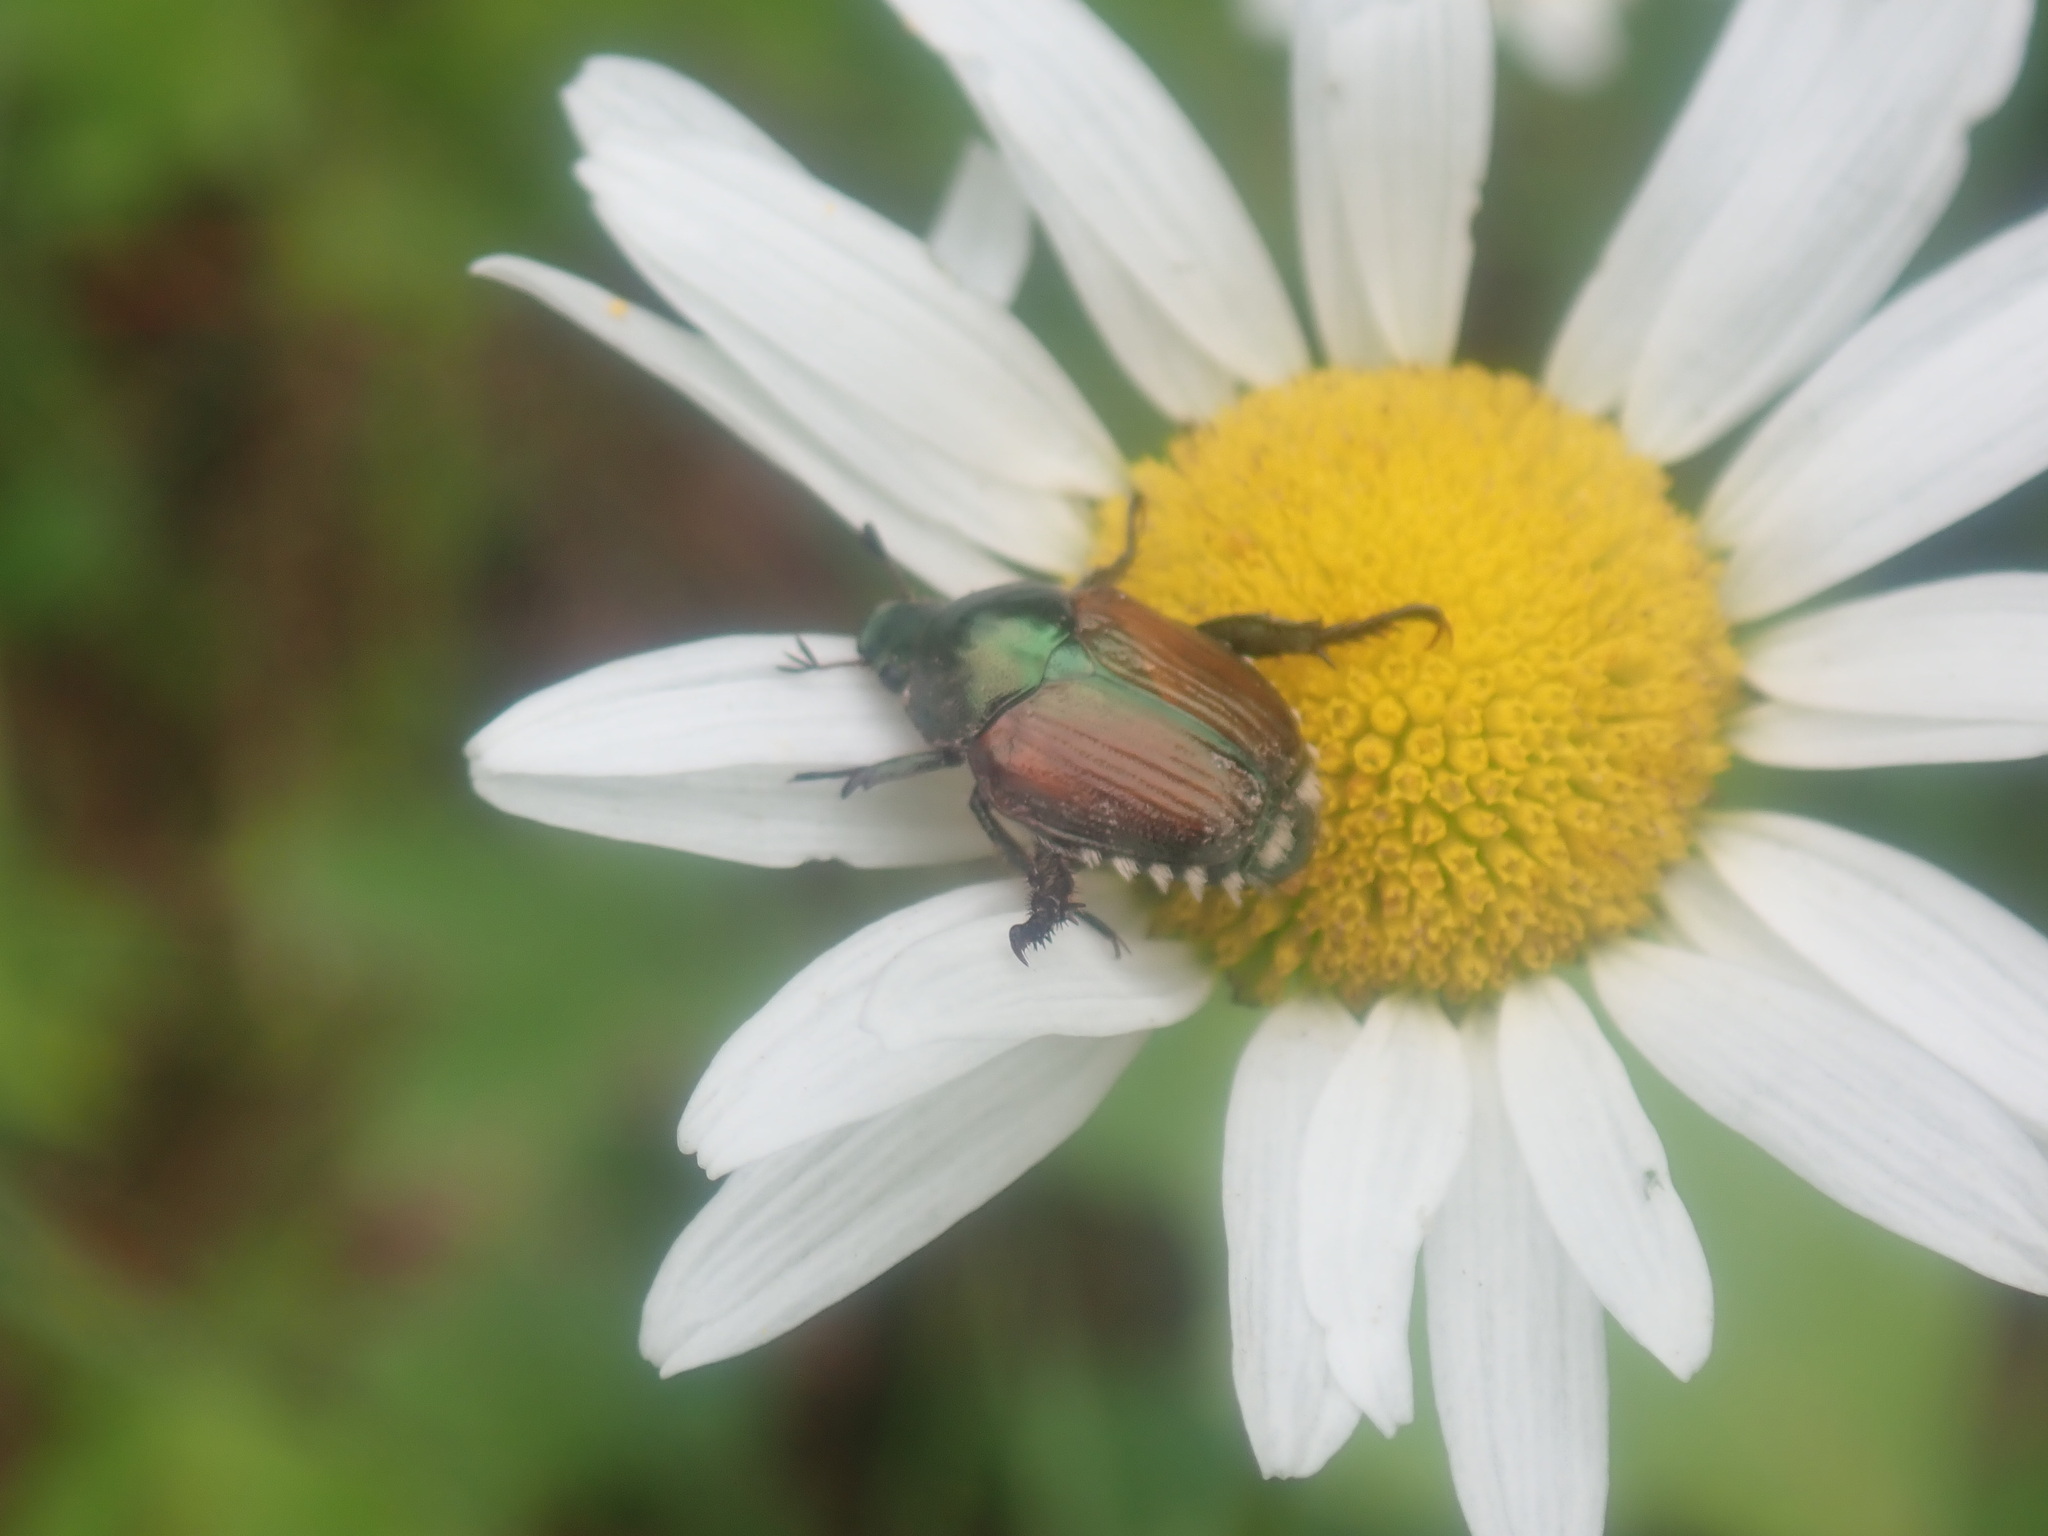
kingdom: Animalia
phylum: Arthropoda
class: Insecta
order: Coleoptera
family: Scarabaeidae
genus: Popillia
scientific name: Popillia japonica
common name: Japanese beetle
